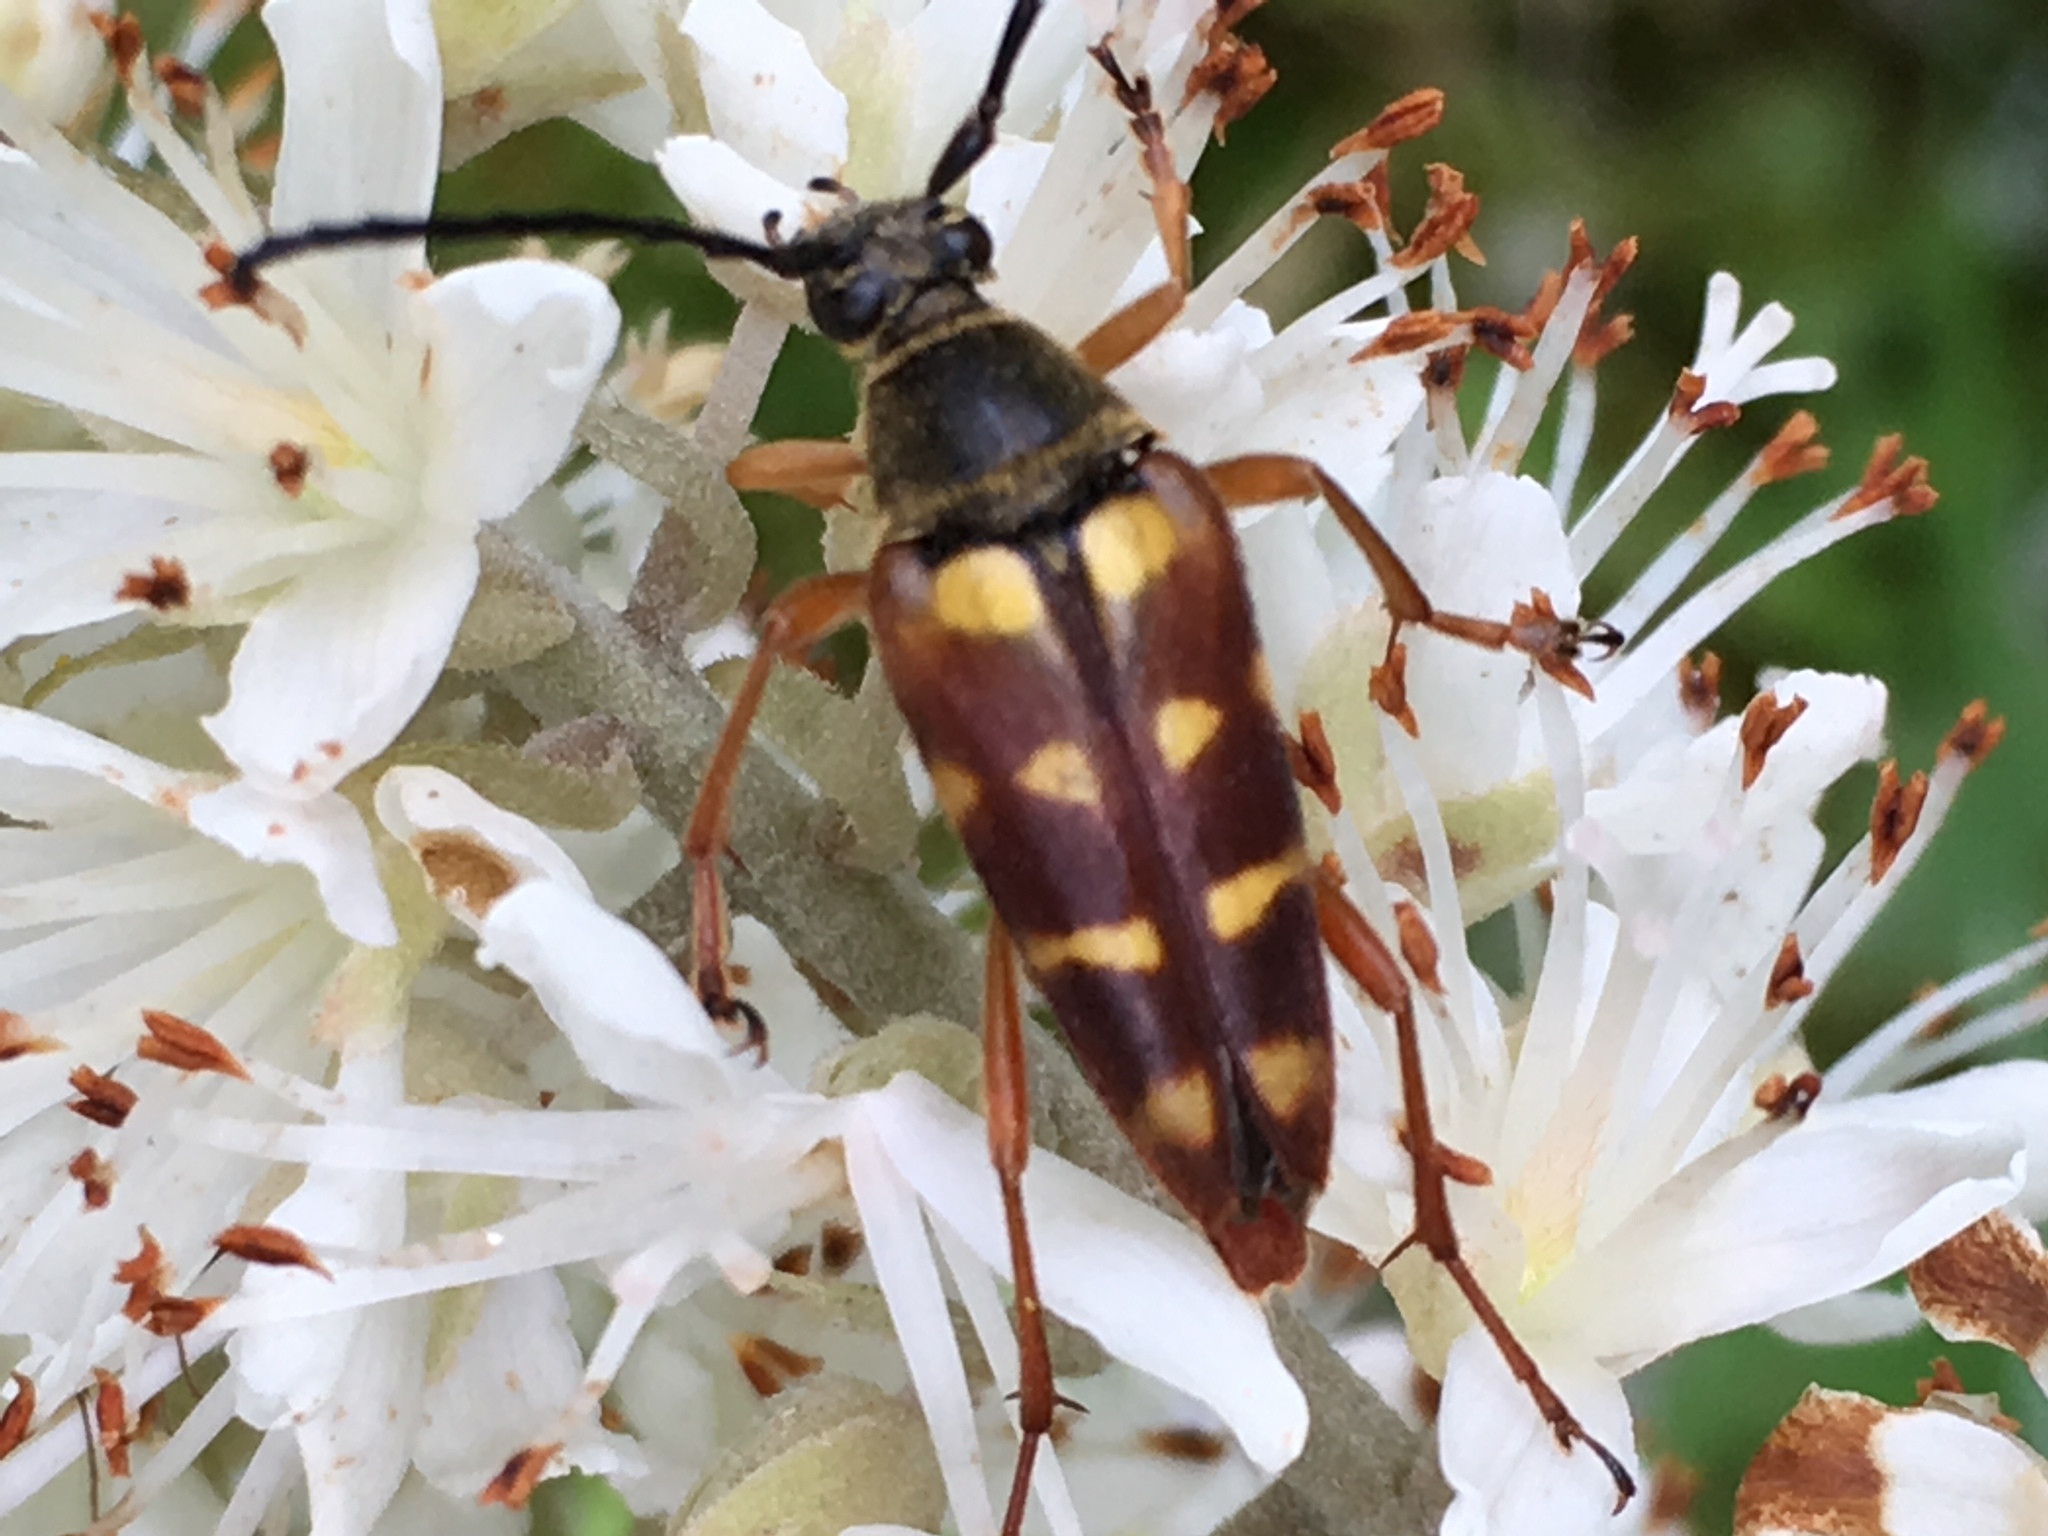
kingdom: Animalia
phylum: Arthropoda
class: Insecta
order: Coleoptera
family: Cerambycidae
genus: Typocerus
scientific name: Typocerus velutinus
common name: Banded longhorn beetle
